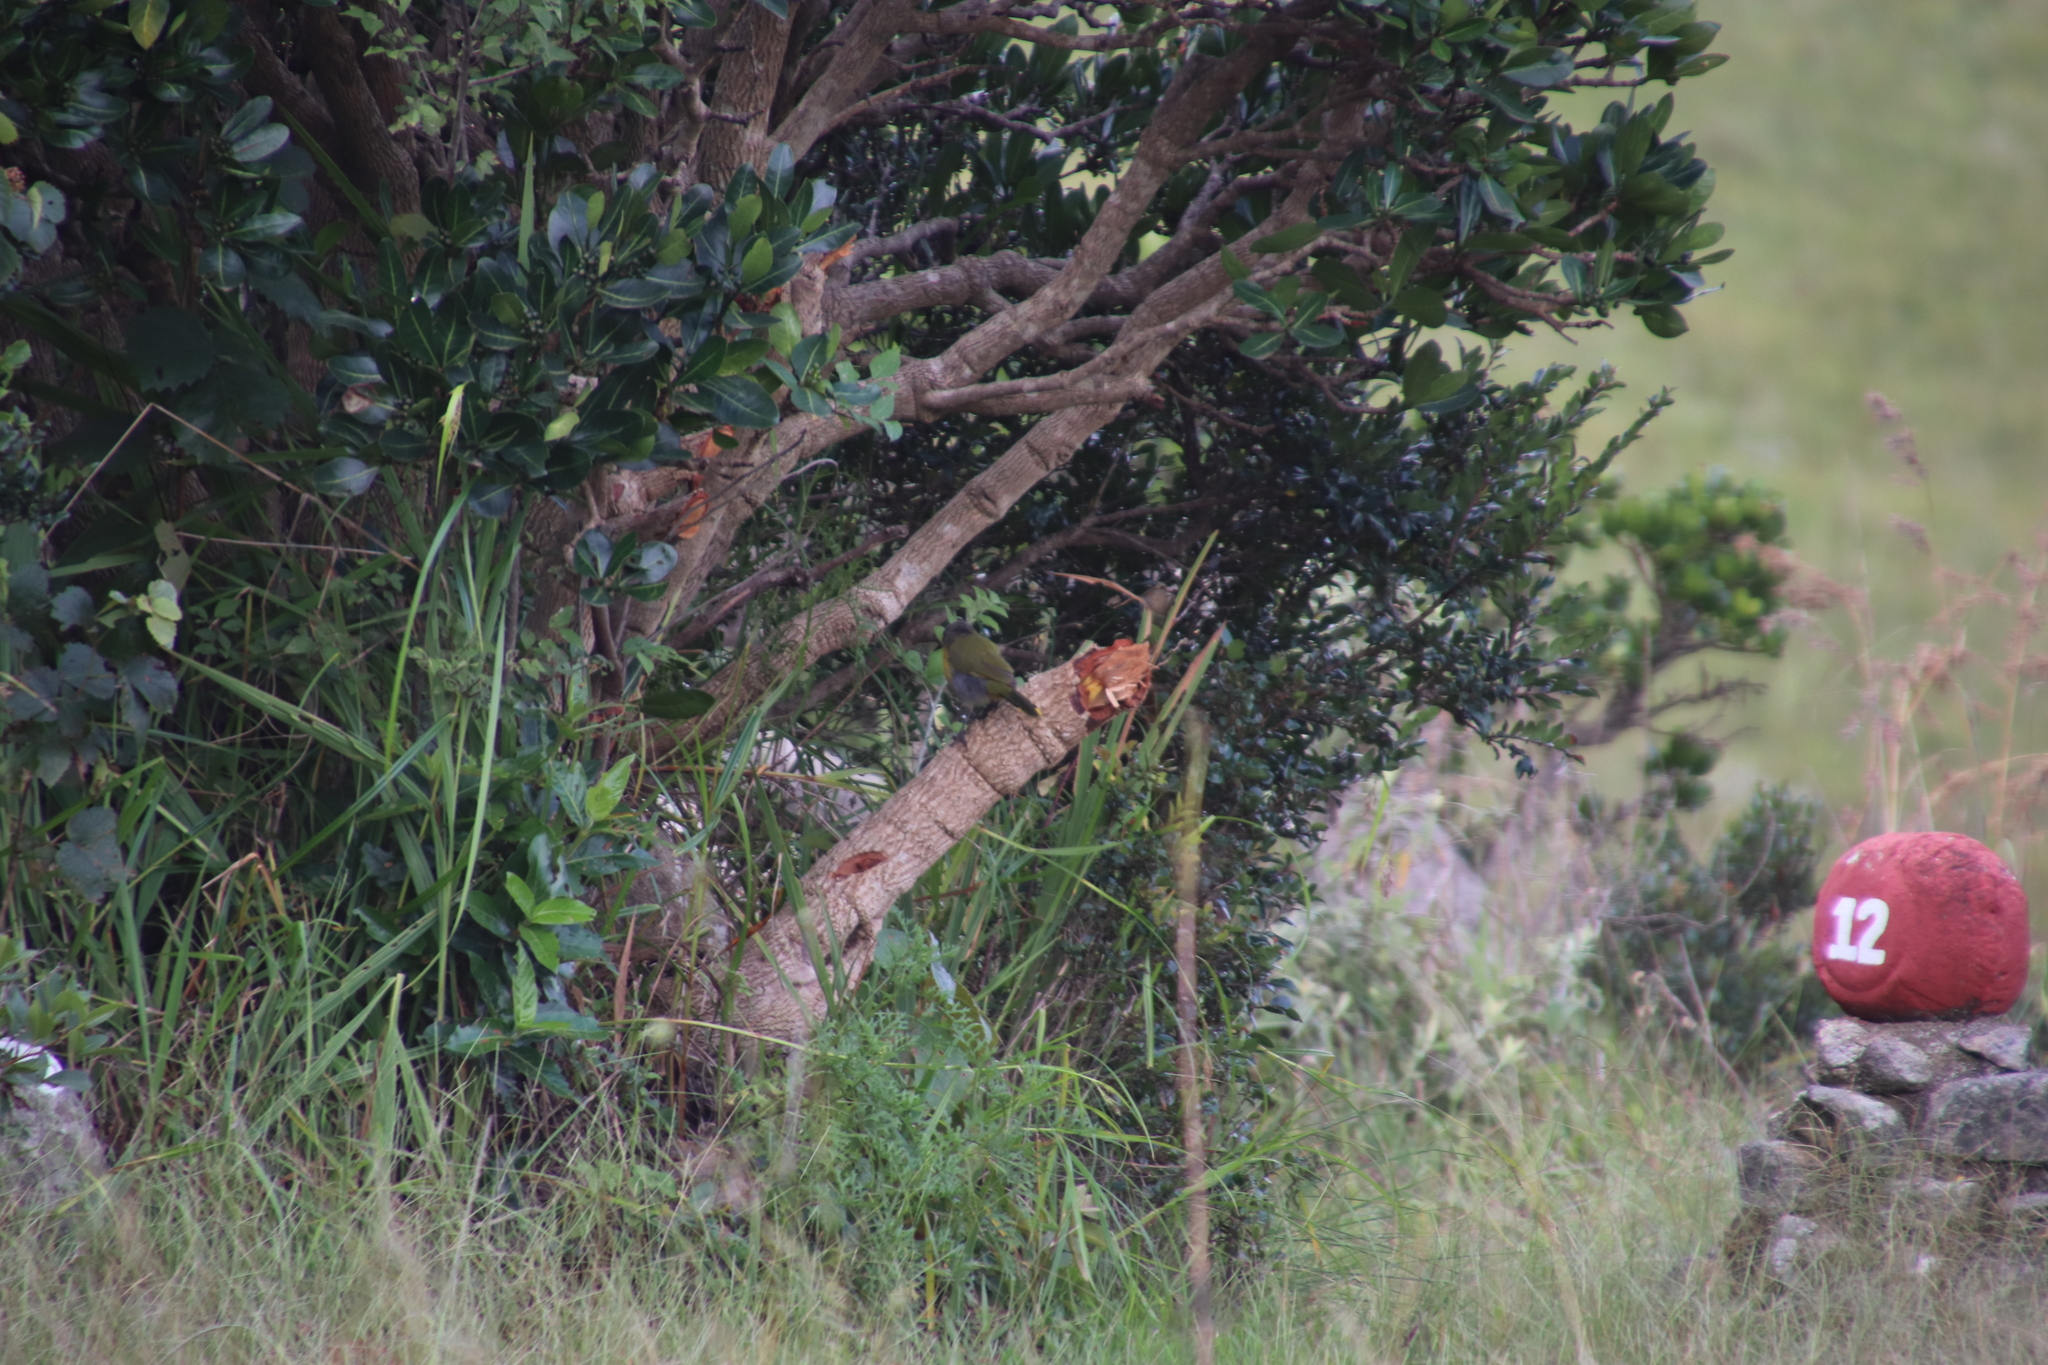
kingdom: Animalia
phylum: Chordata
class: Aves
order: Passeriformes
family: Malaconotidae
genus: Telophorus
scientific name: Telophorus zeylonus
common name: Bokmakierie
